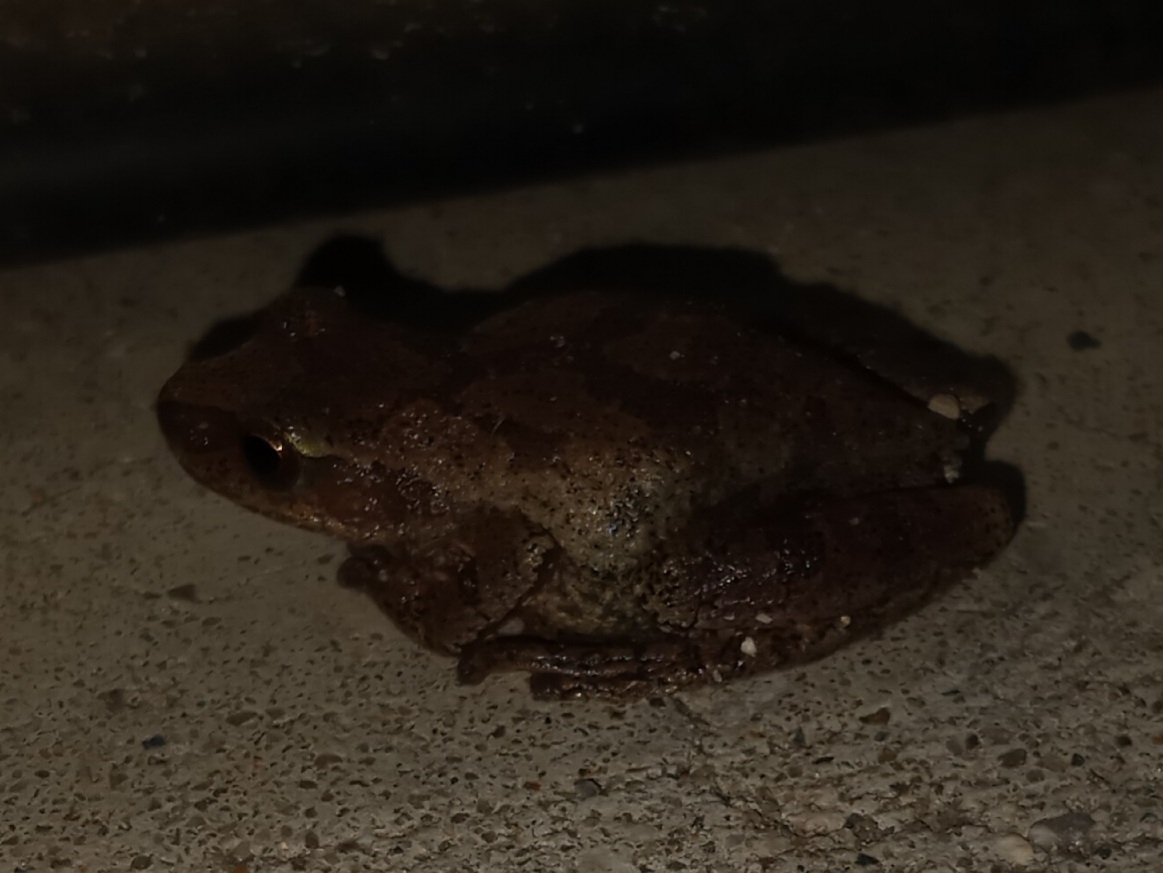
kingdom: Animalia
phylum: Chordata
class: Amphibia
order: Anura
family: Hylidae
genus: Pseudacris
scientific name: Pseudacris crucifer
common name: Spring peeper
